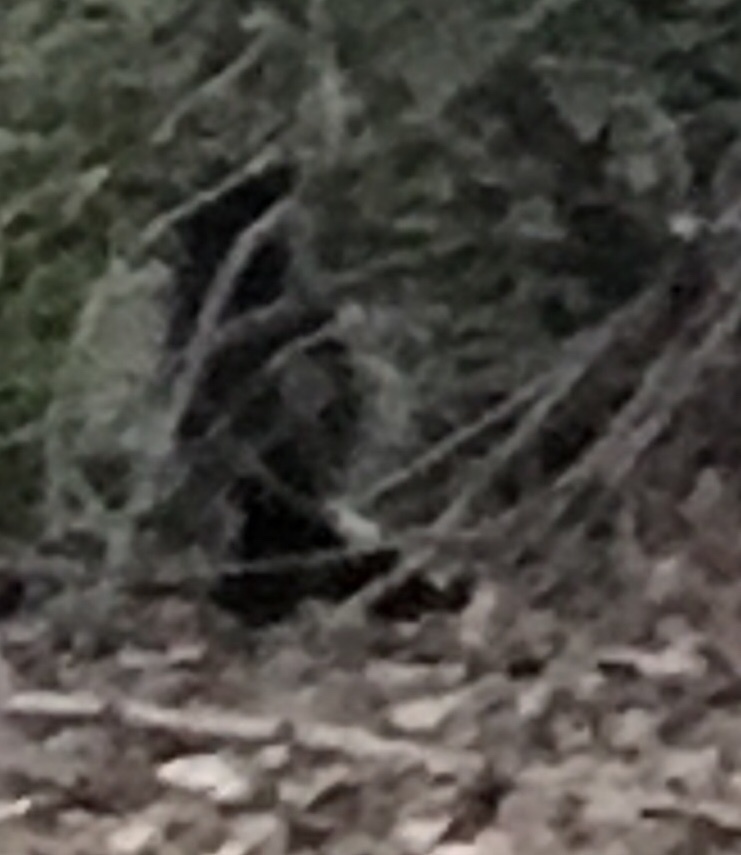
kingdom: Animalia
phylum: Chordata
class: Mammalia
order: Carnivora
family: Mephitidae
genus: Mephitis
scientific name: Mephitis mephitis
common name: Striped skunk
